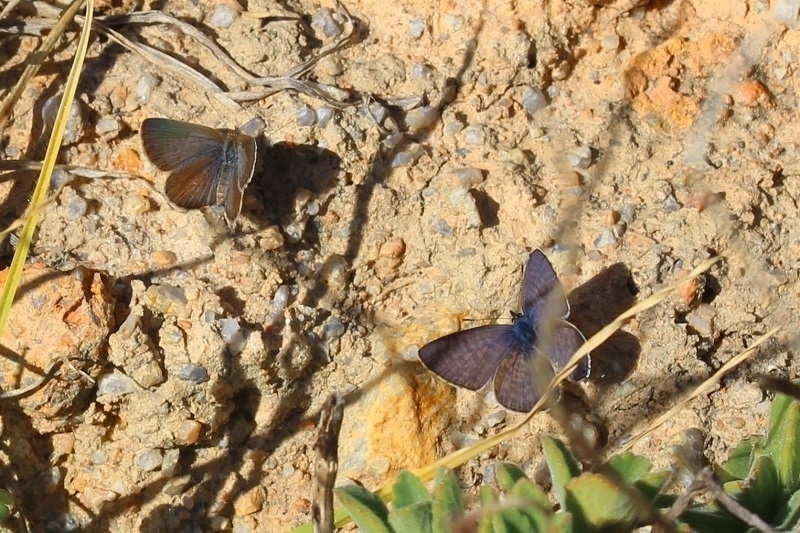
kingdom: Animalia
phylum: Arthropoda
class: Insecta
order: Lepidoptera
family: Lycaenidae
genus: Zizeeria
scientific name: Zizeeria knysna
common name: African grass blue
